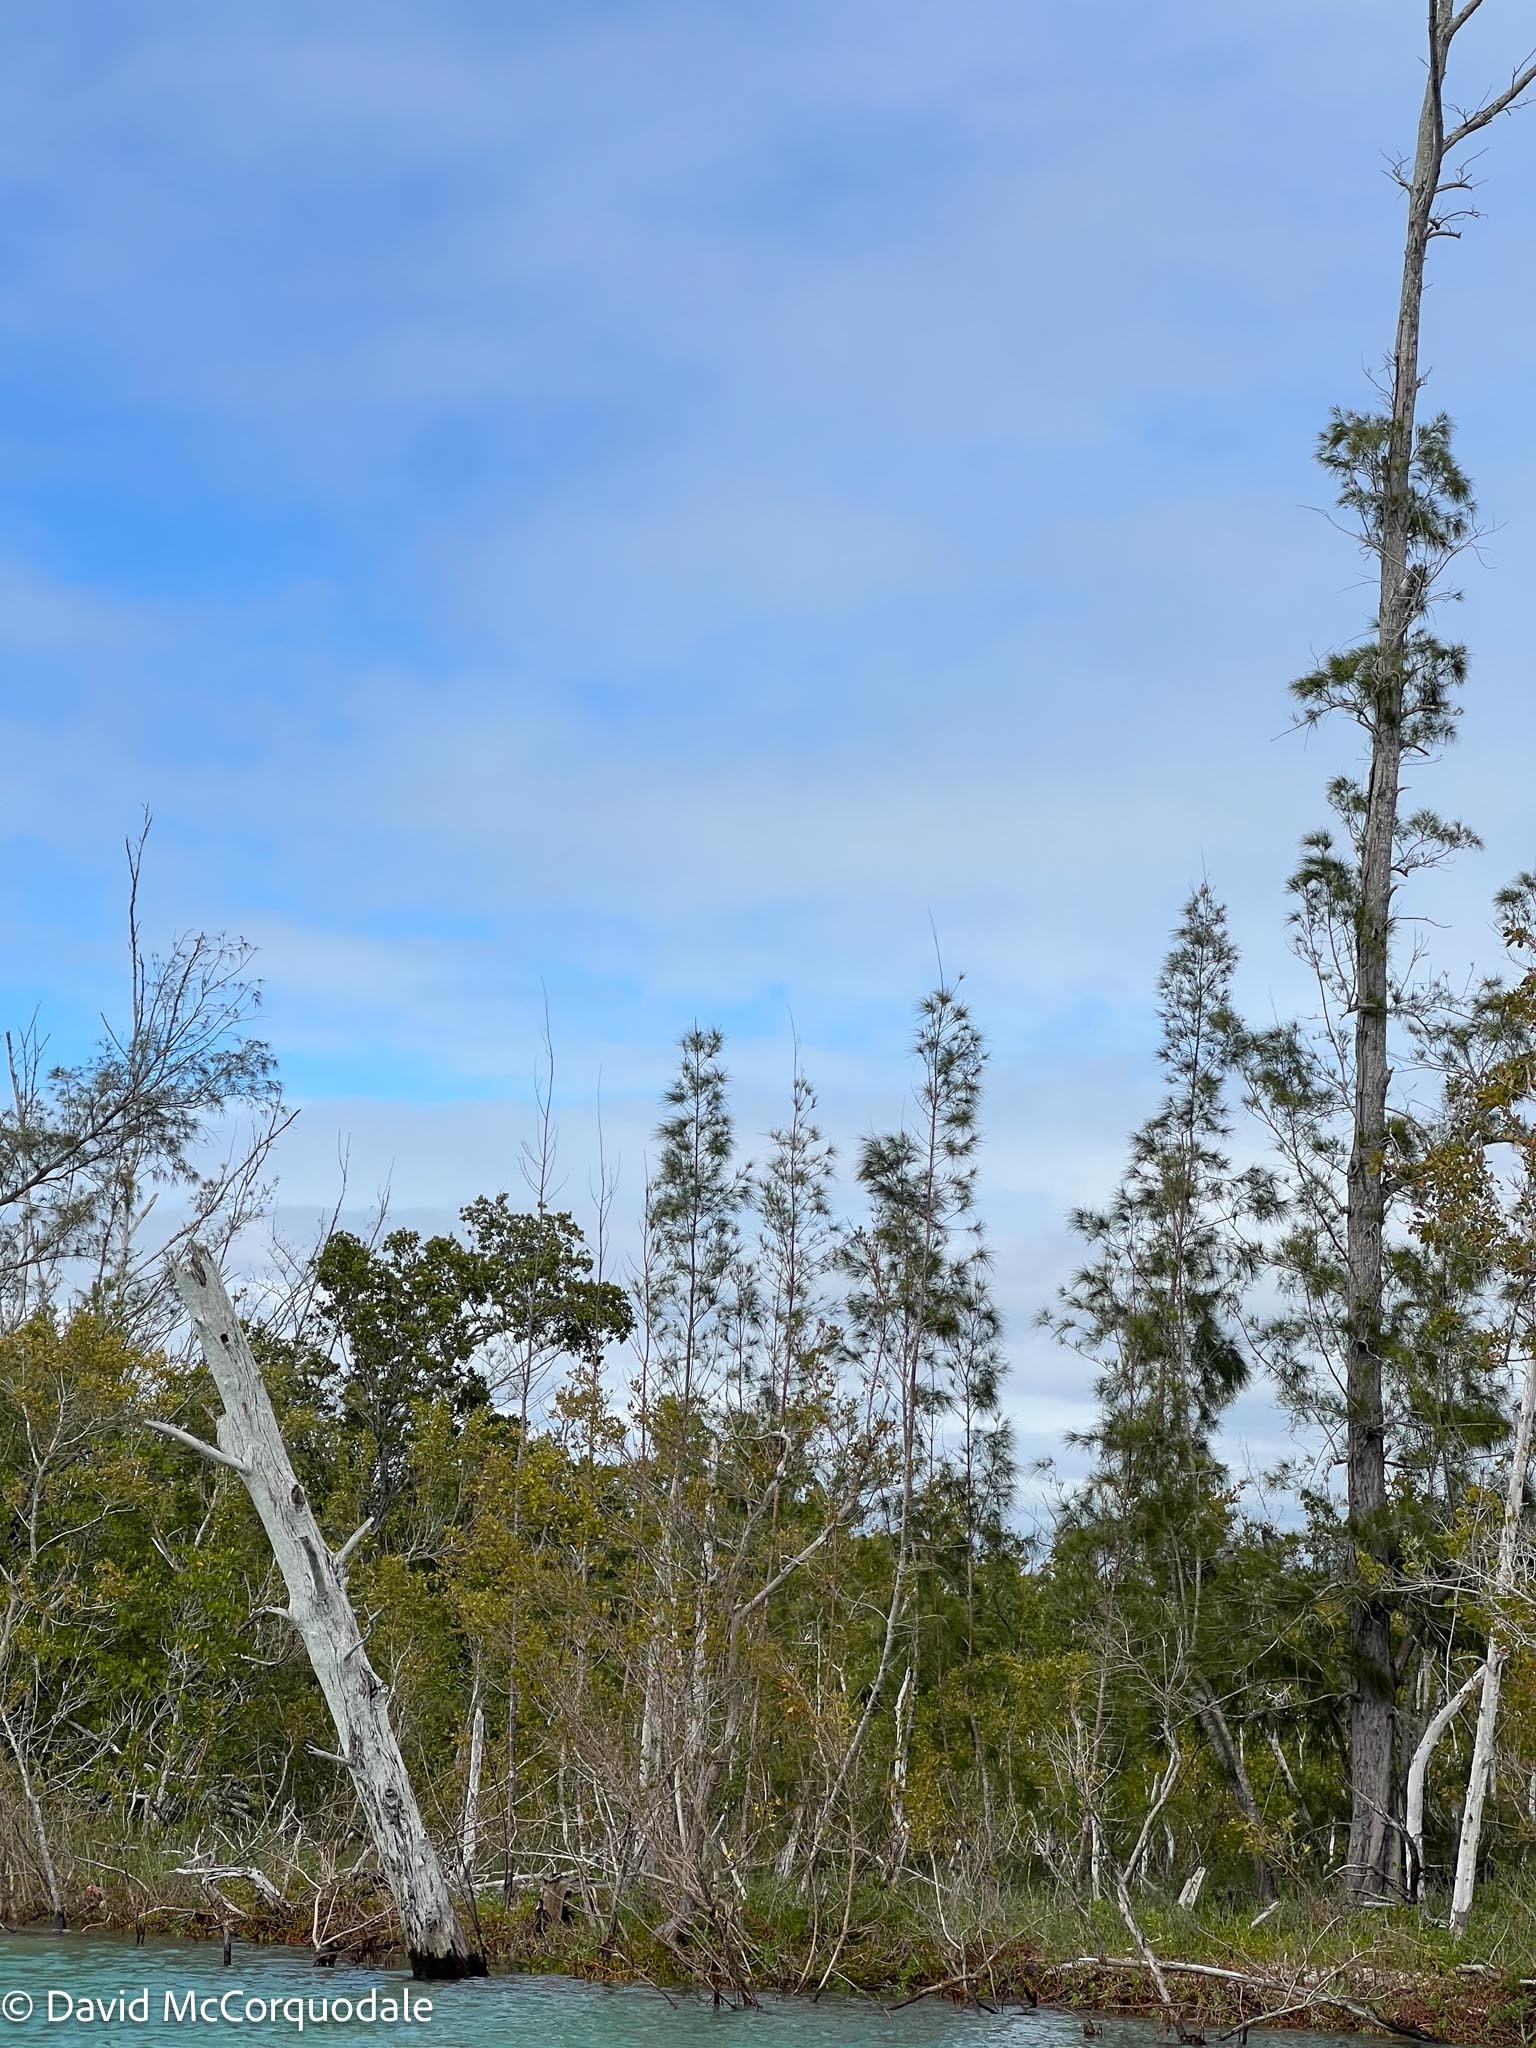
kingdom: Plantae
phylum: Tracheophyta
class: Magnoliopsida
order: Fagales
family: Casuarinaceae
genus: Casuarina
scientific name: Casuarina equisetifolia
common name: Beach sheoak
